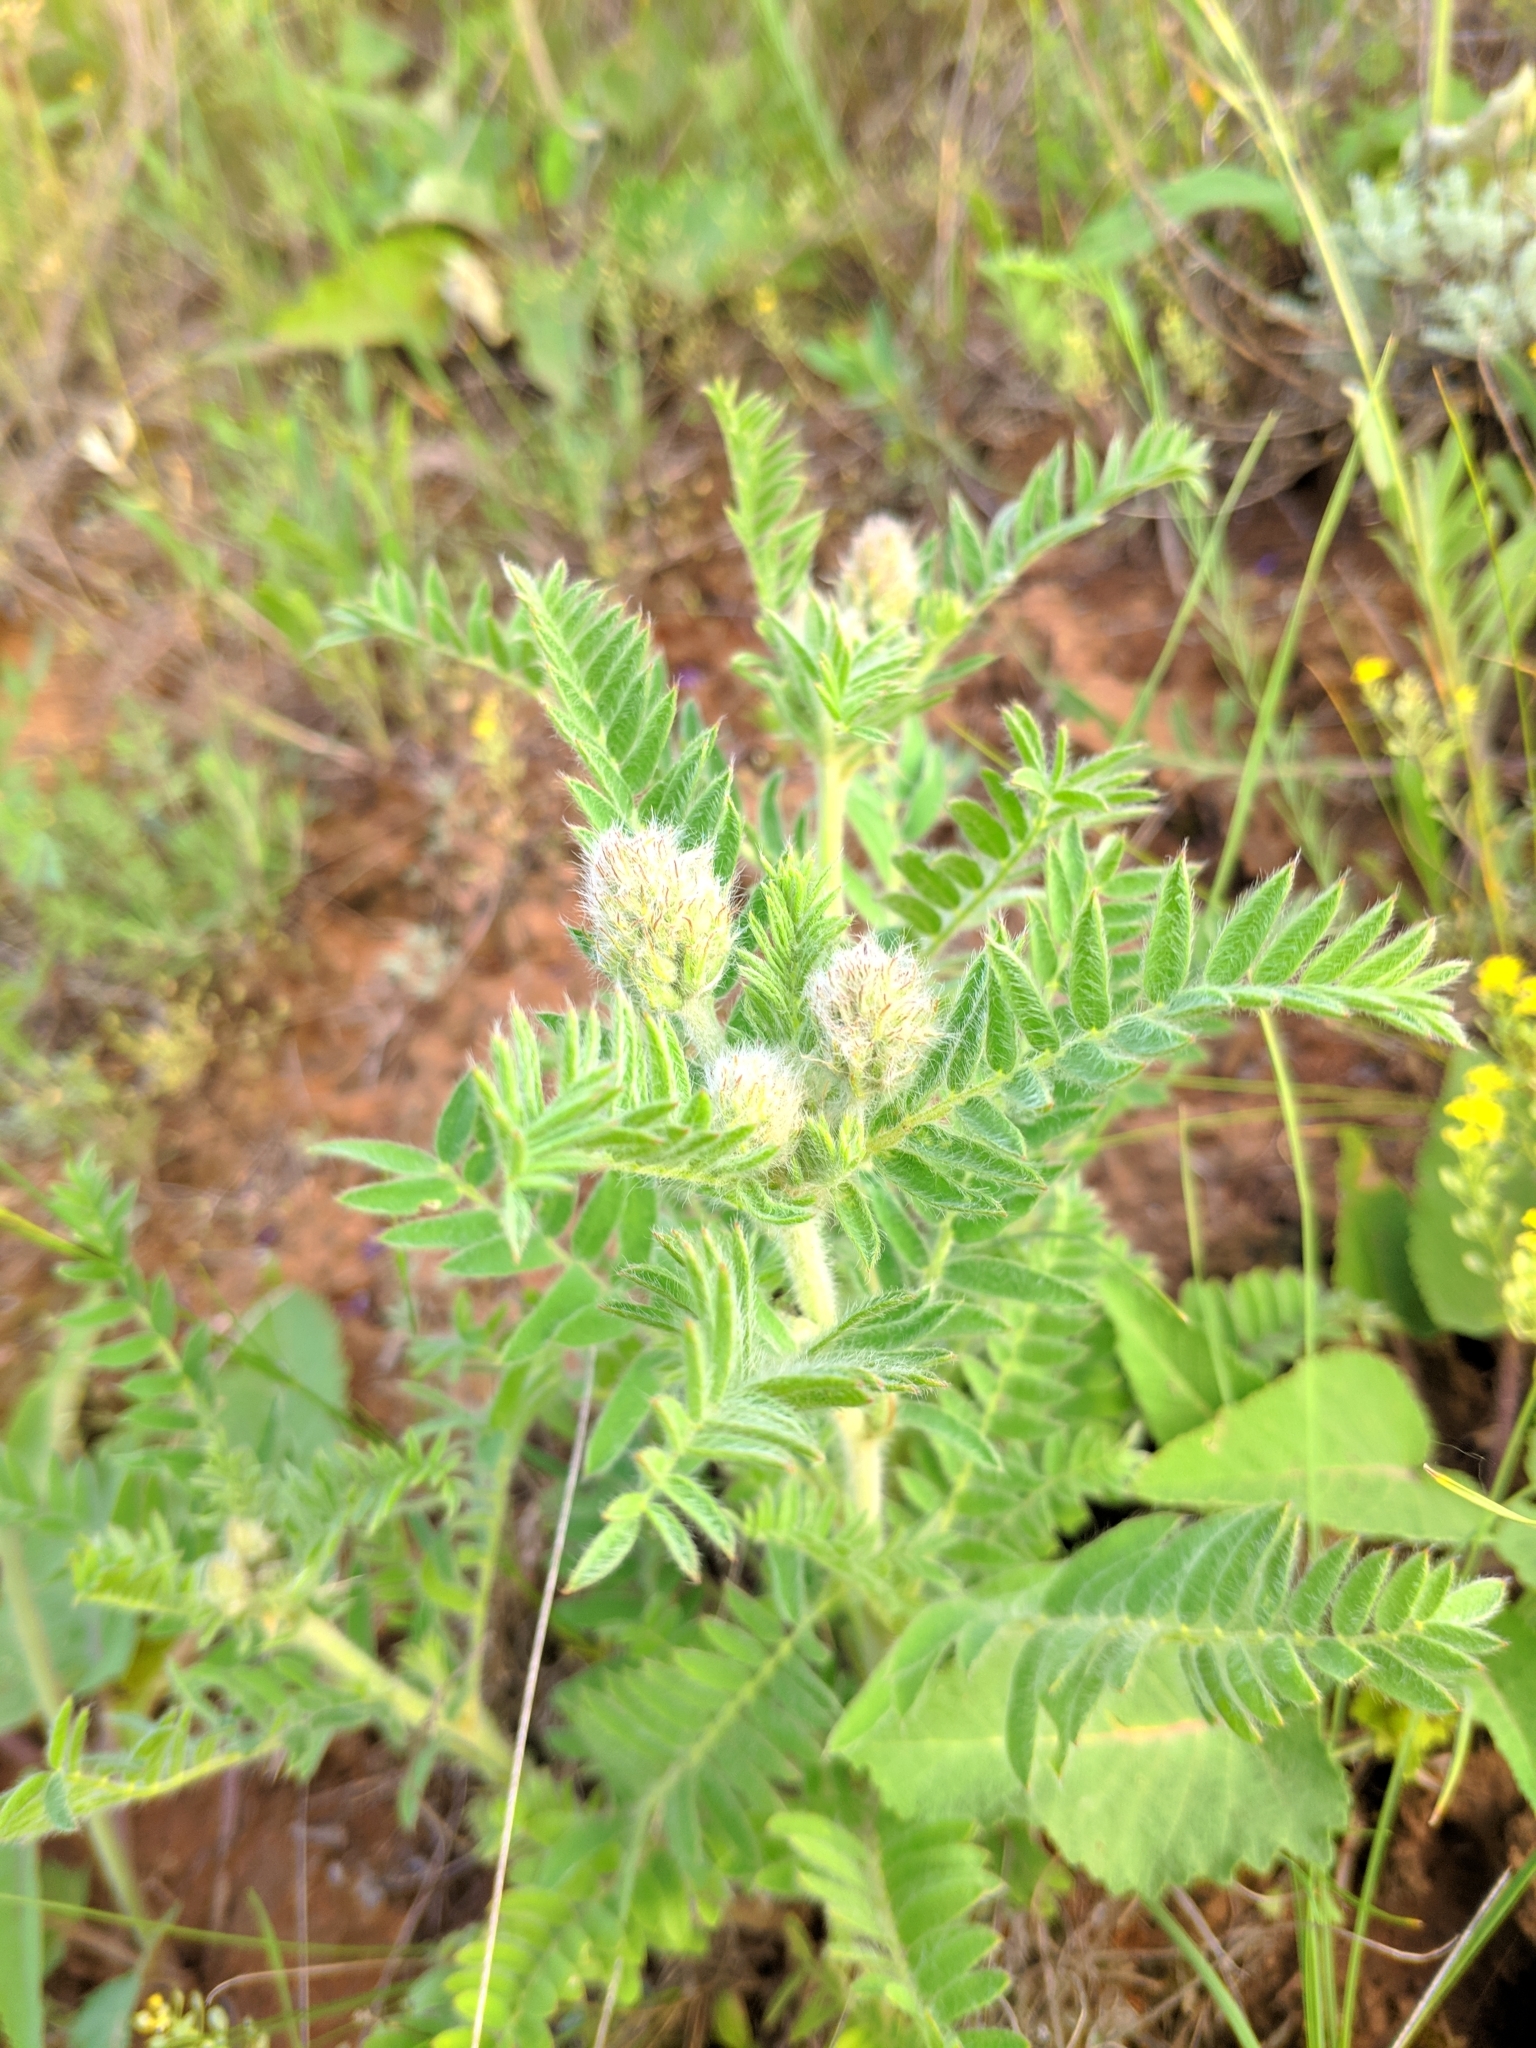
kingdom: Plantae
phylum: Tracheophyta
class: Magnoliopsida
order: Fabales
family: Fabaceae
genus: Oxytropis
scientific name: Oxytropis pilosa
